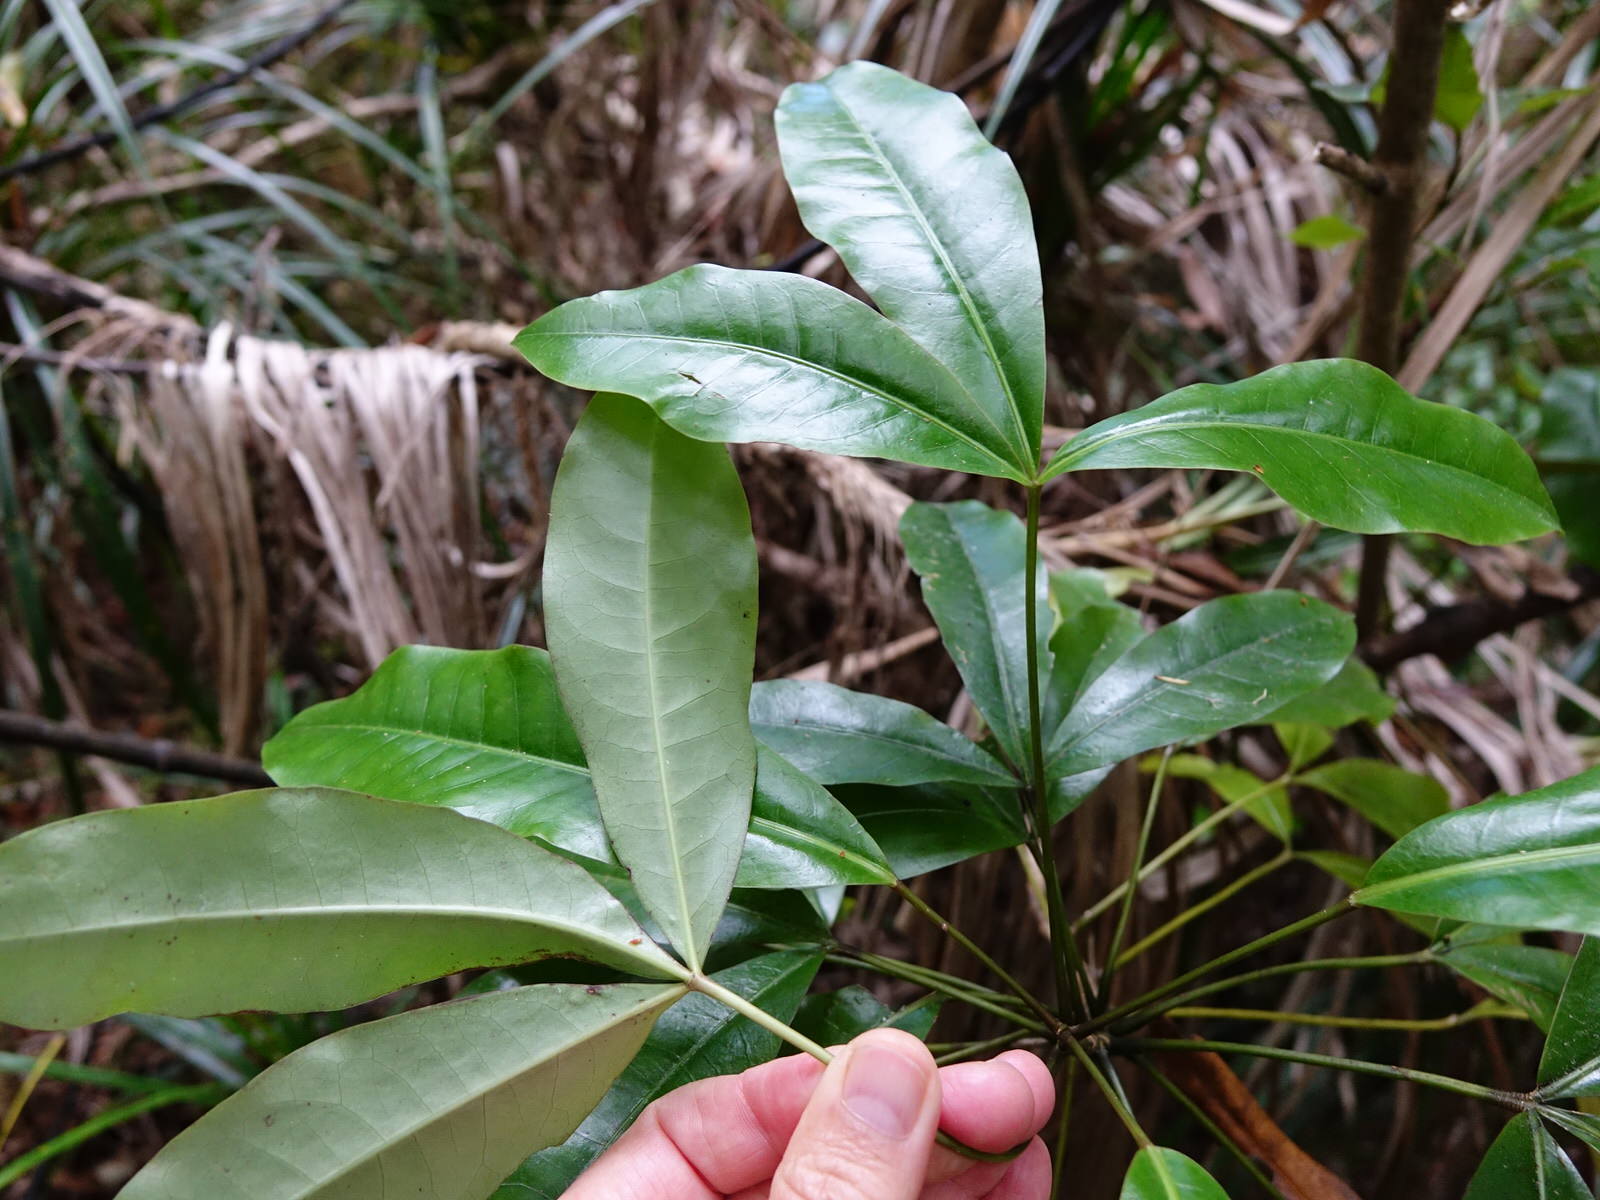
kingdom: Plantae
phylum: Tracheophyta
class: Magnoliopsida
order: Apiales
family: Araliaceae
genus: Raukaua
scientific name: Raukaua edgerleyi
